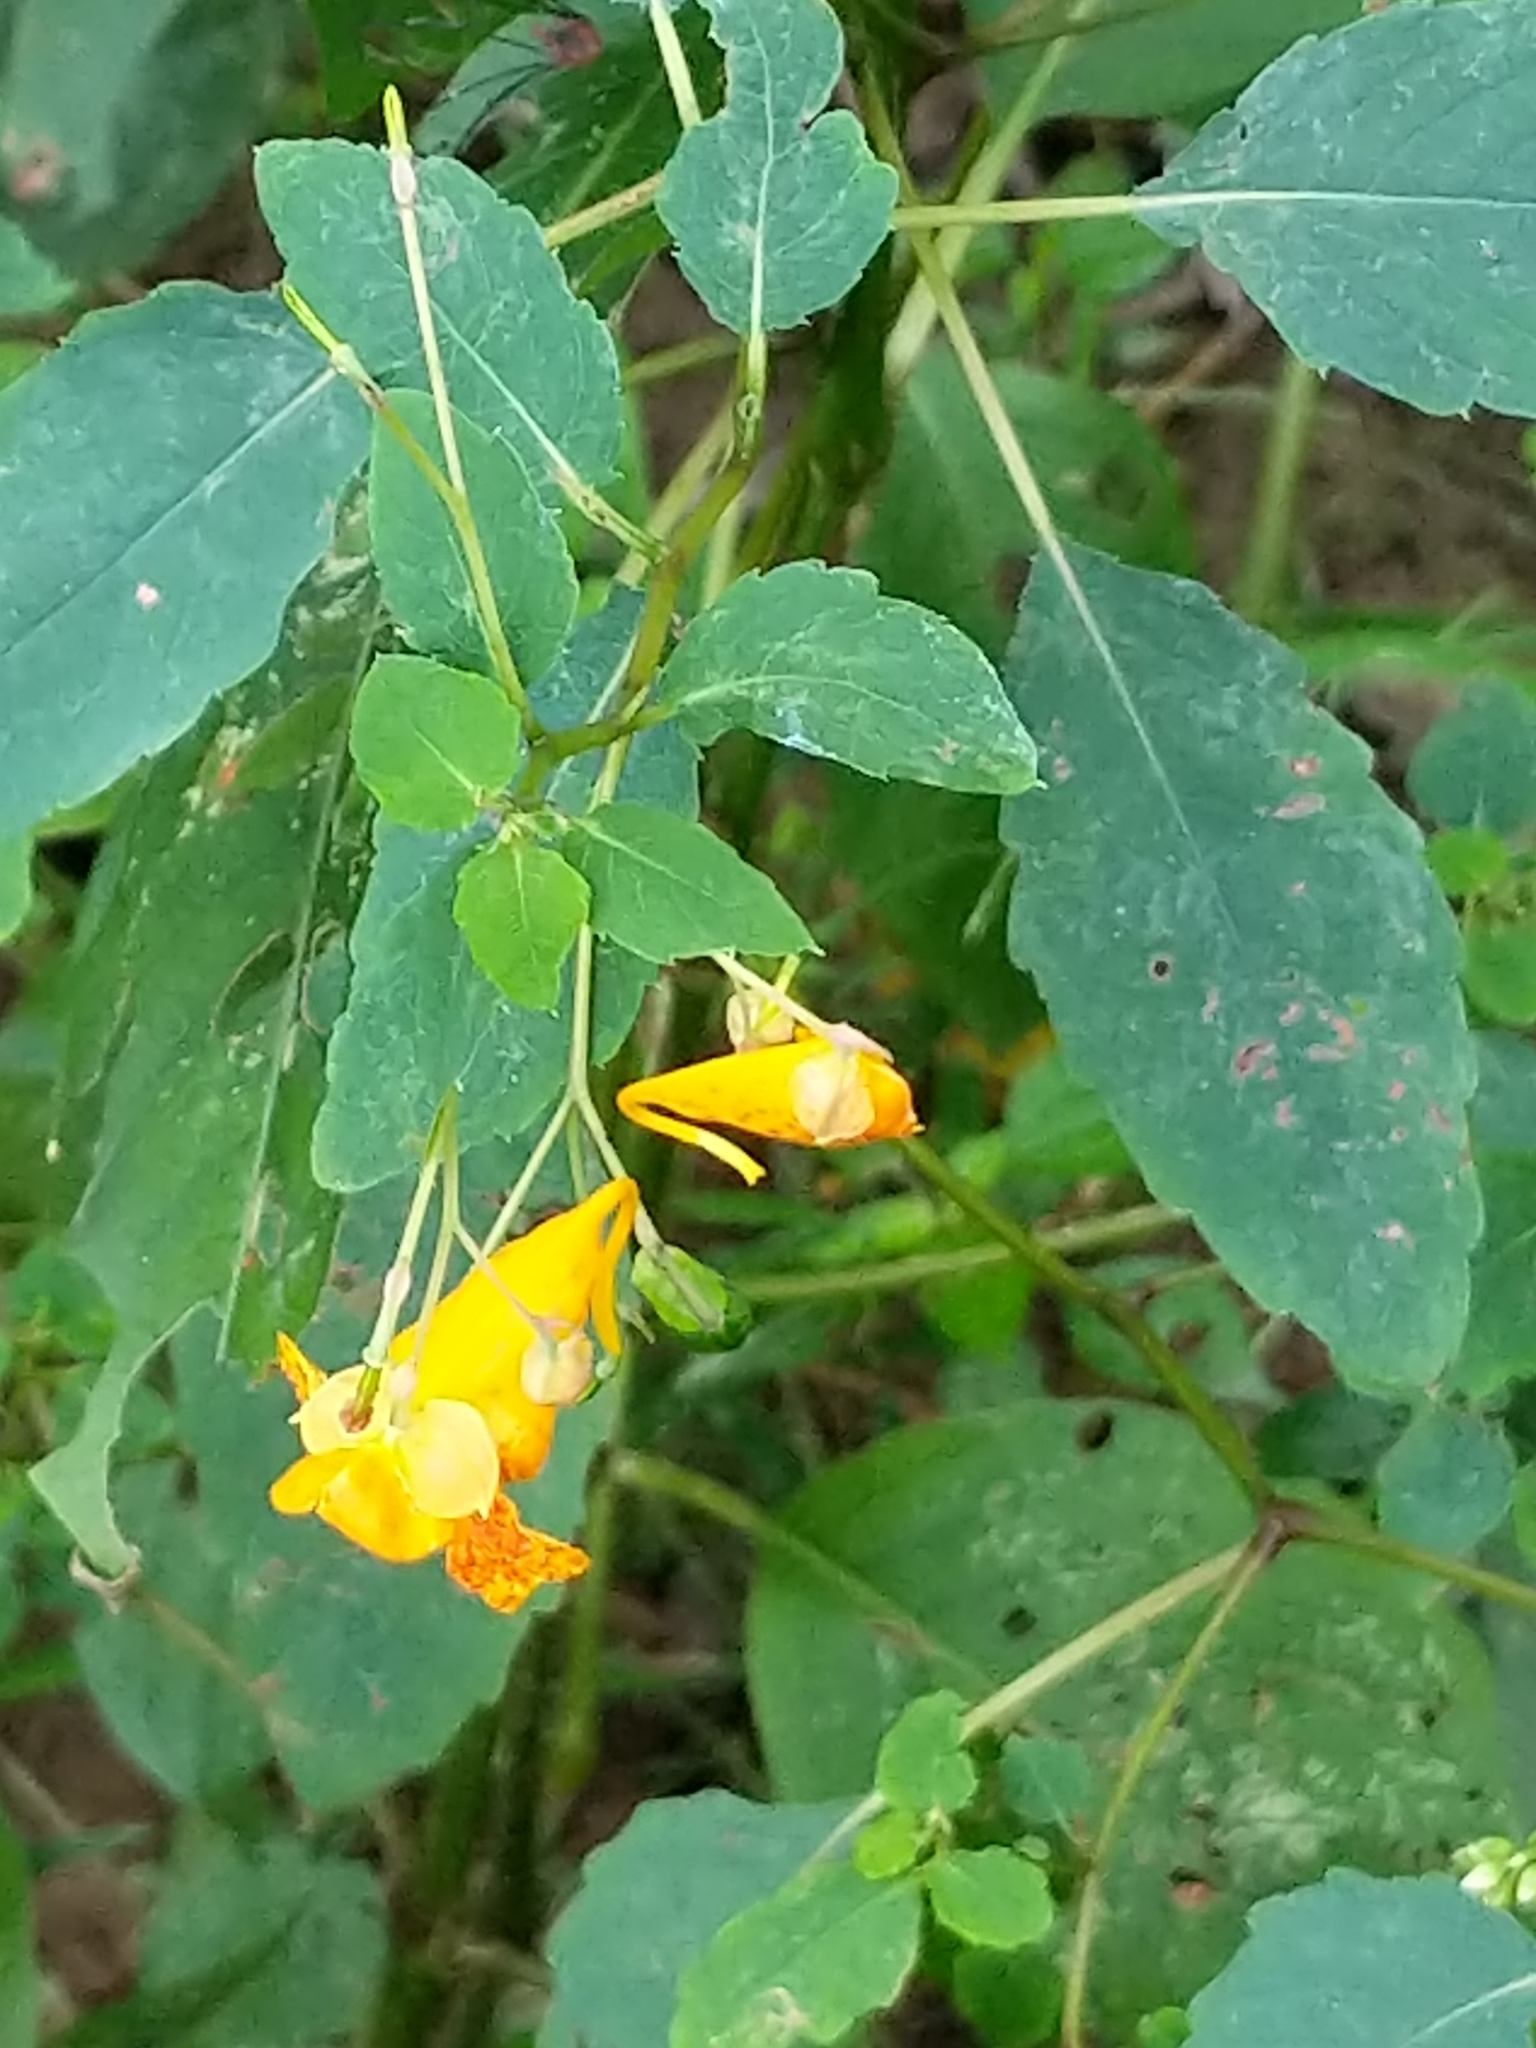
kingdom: Plantae
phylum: Tracheophyta
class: Magnoliopsida
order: Ericales
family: Balsaminaceae
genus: Impatiens
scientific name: Impatiens capensis
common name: Orange balsam
